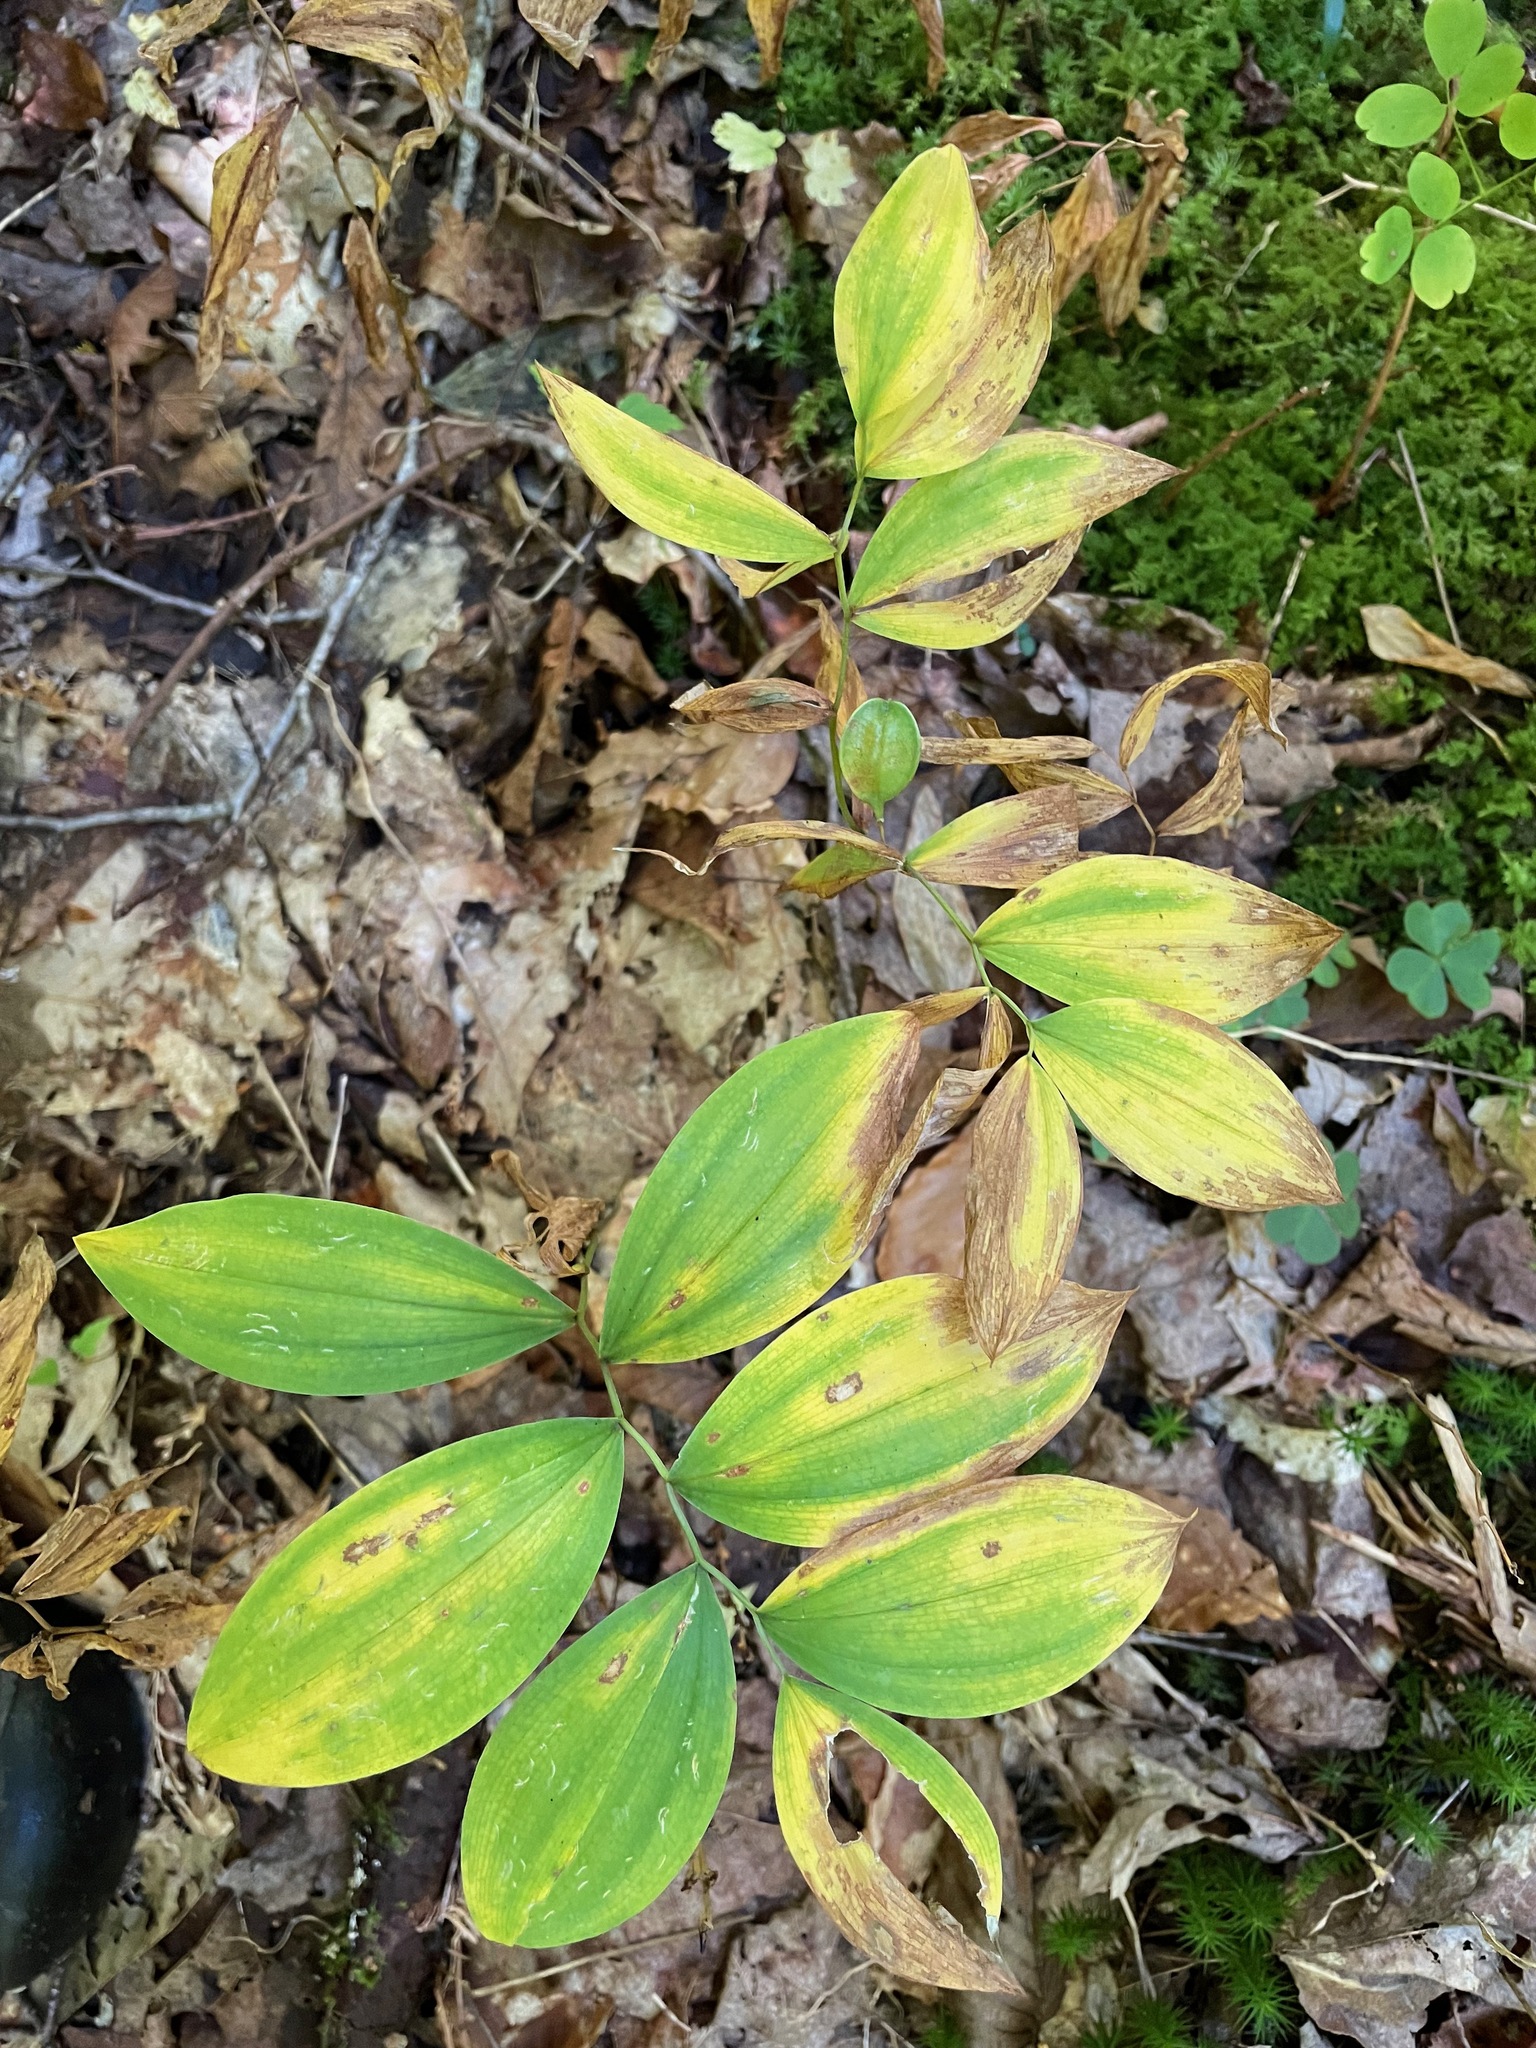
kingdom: Plantae
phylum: Tracheophyta
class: Liliopsida
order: Liliales
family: Colchicaceae
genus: Uvularia
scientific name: Uvularia sessilifolia
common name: Straw-lily
